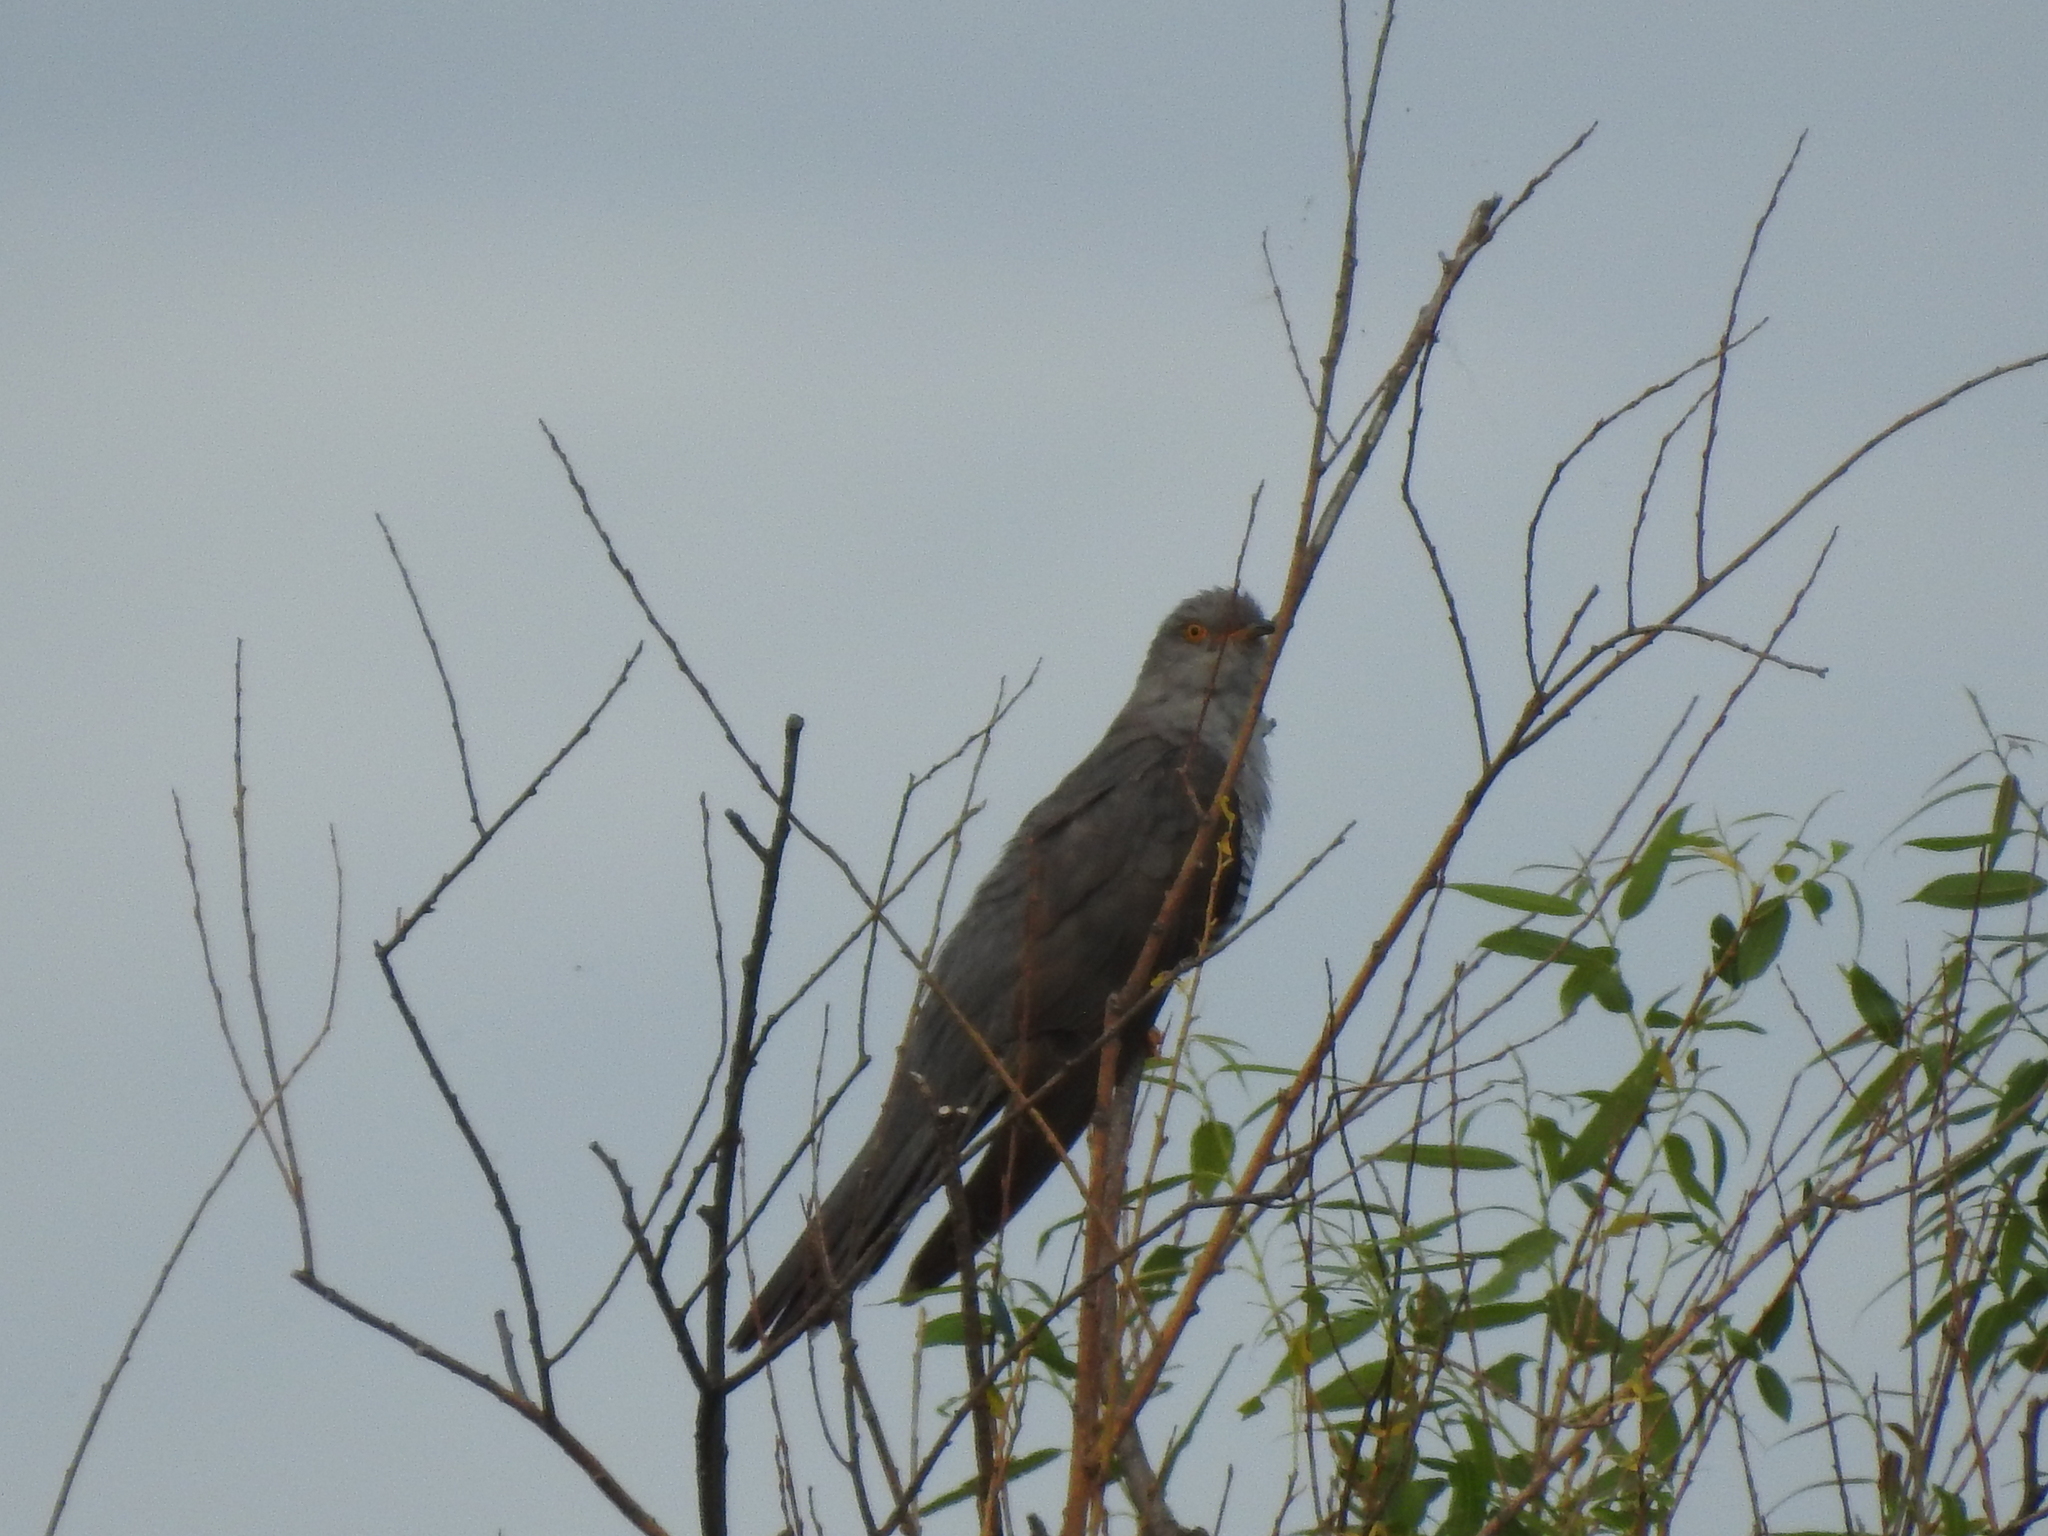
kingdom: Animalia
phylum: Chordata
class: Aves
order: Cuculiformes
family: Cuculidae
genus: Cuculus
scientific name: Cuculus canorus
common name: Common cuckoo
